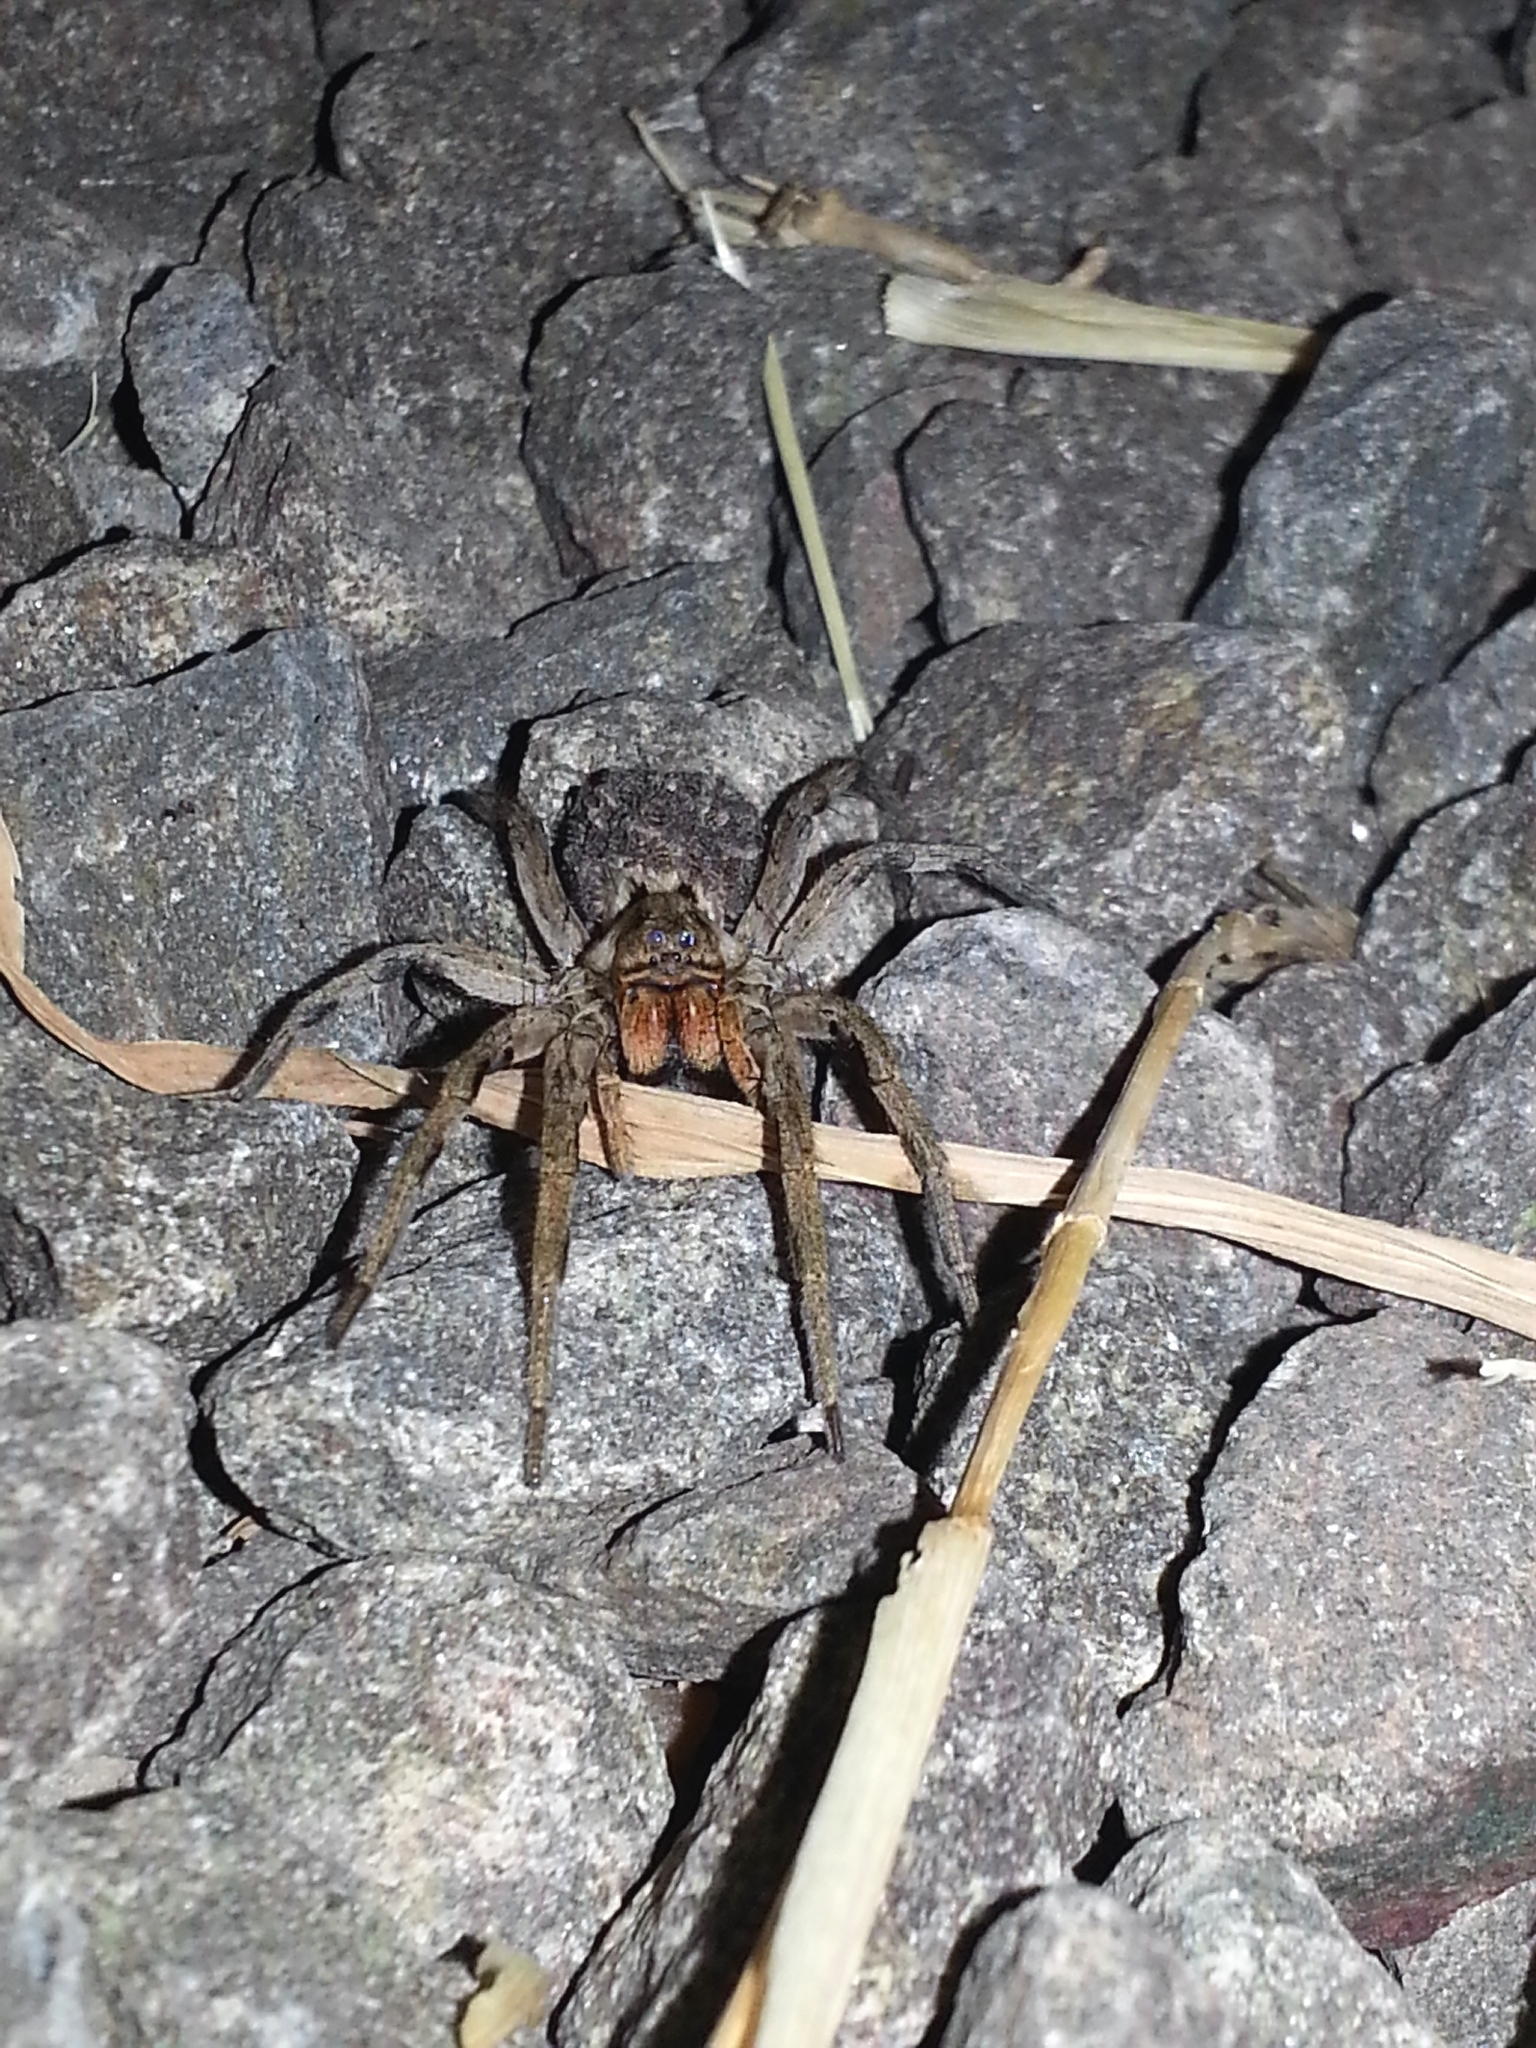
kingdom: Animalia
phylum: Arthropoda
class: Arachnida
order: Araneae
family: Lycosidae
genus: Lycosa
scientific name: Lycosa erythrognatha
